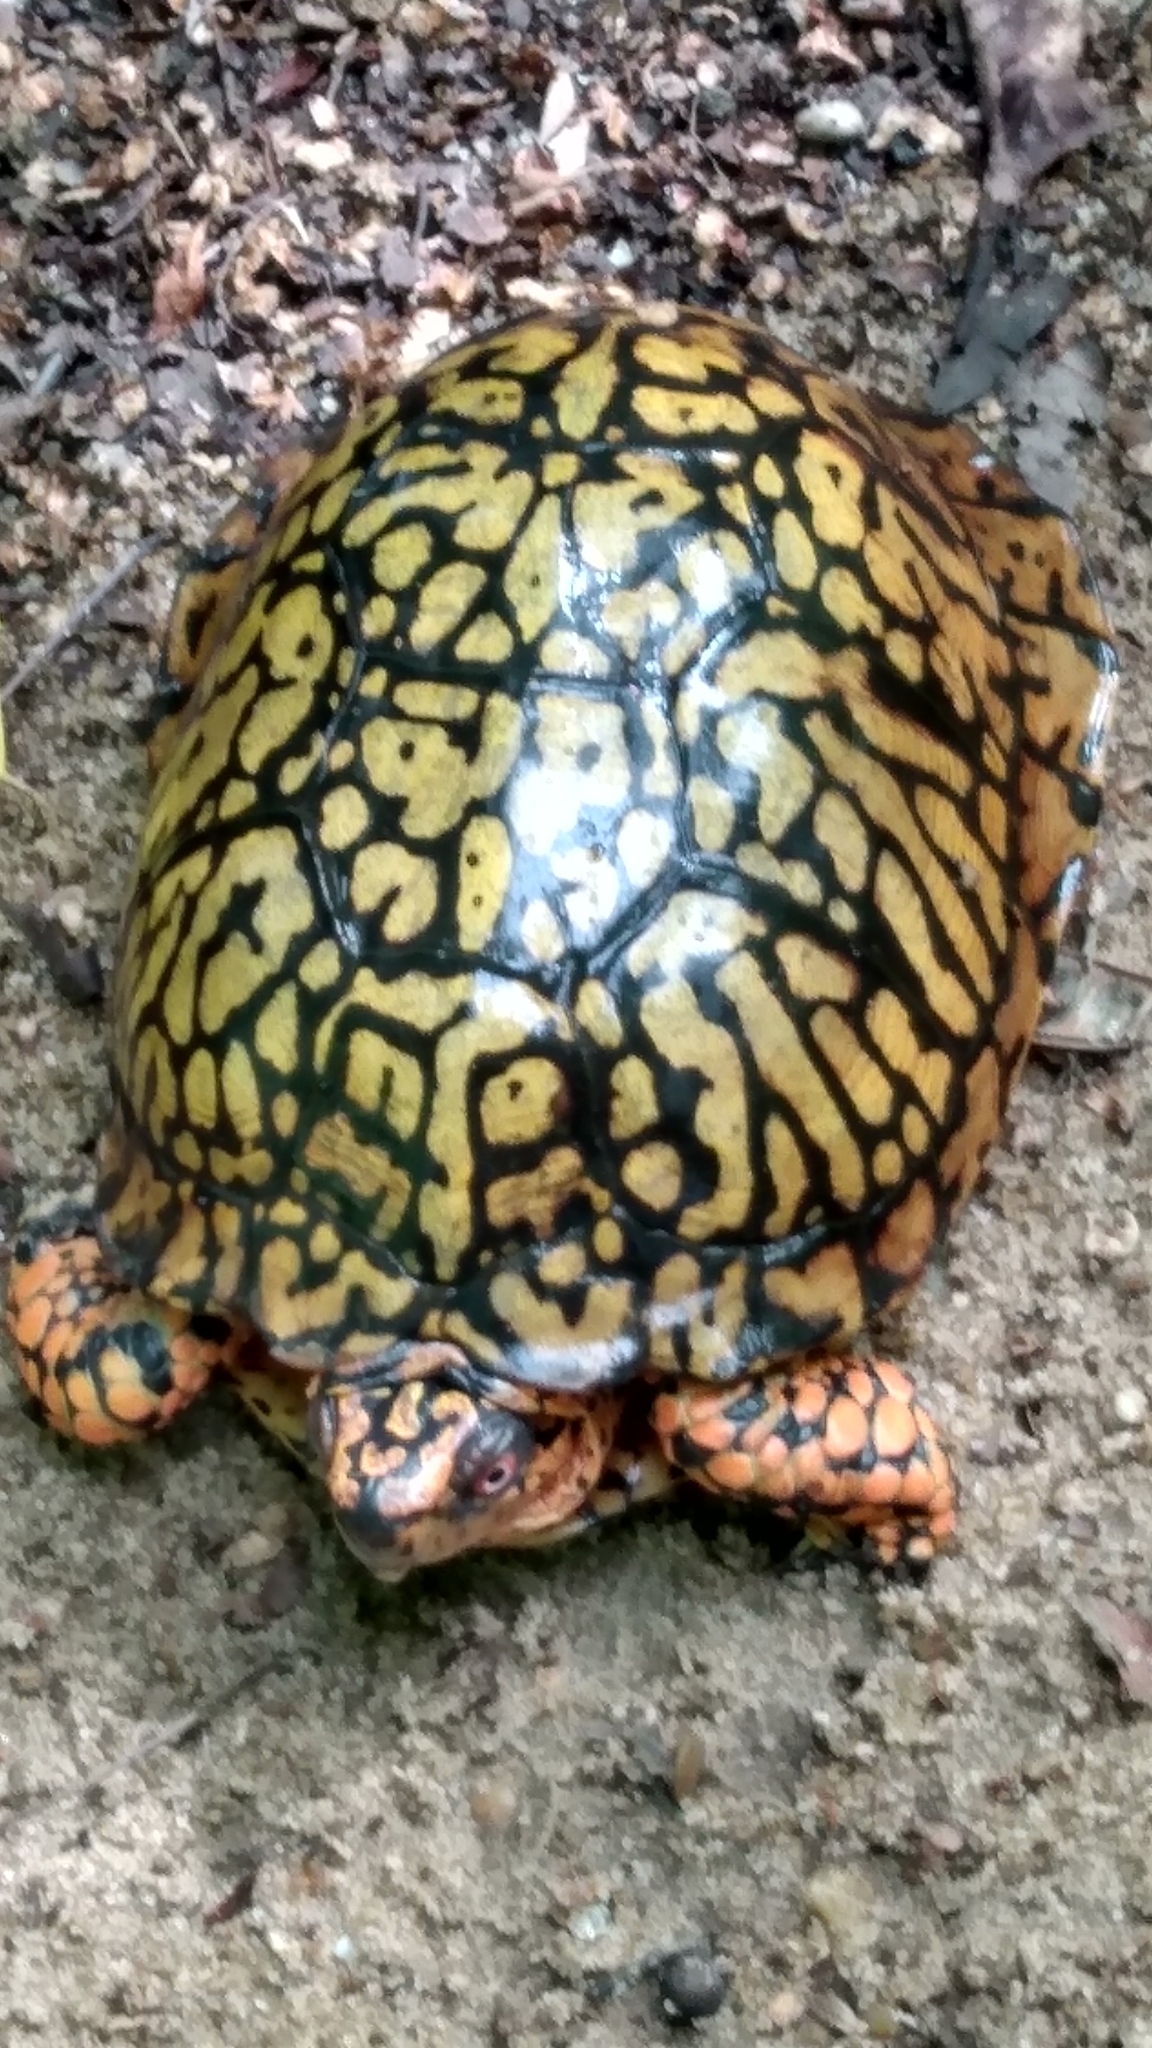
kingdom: Animalia
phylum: Chordata
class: Testudines
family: Emydidae
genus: Terrapene
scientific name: Terrapene carolina
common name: Common box turtle
